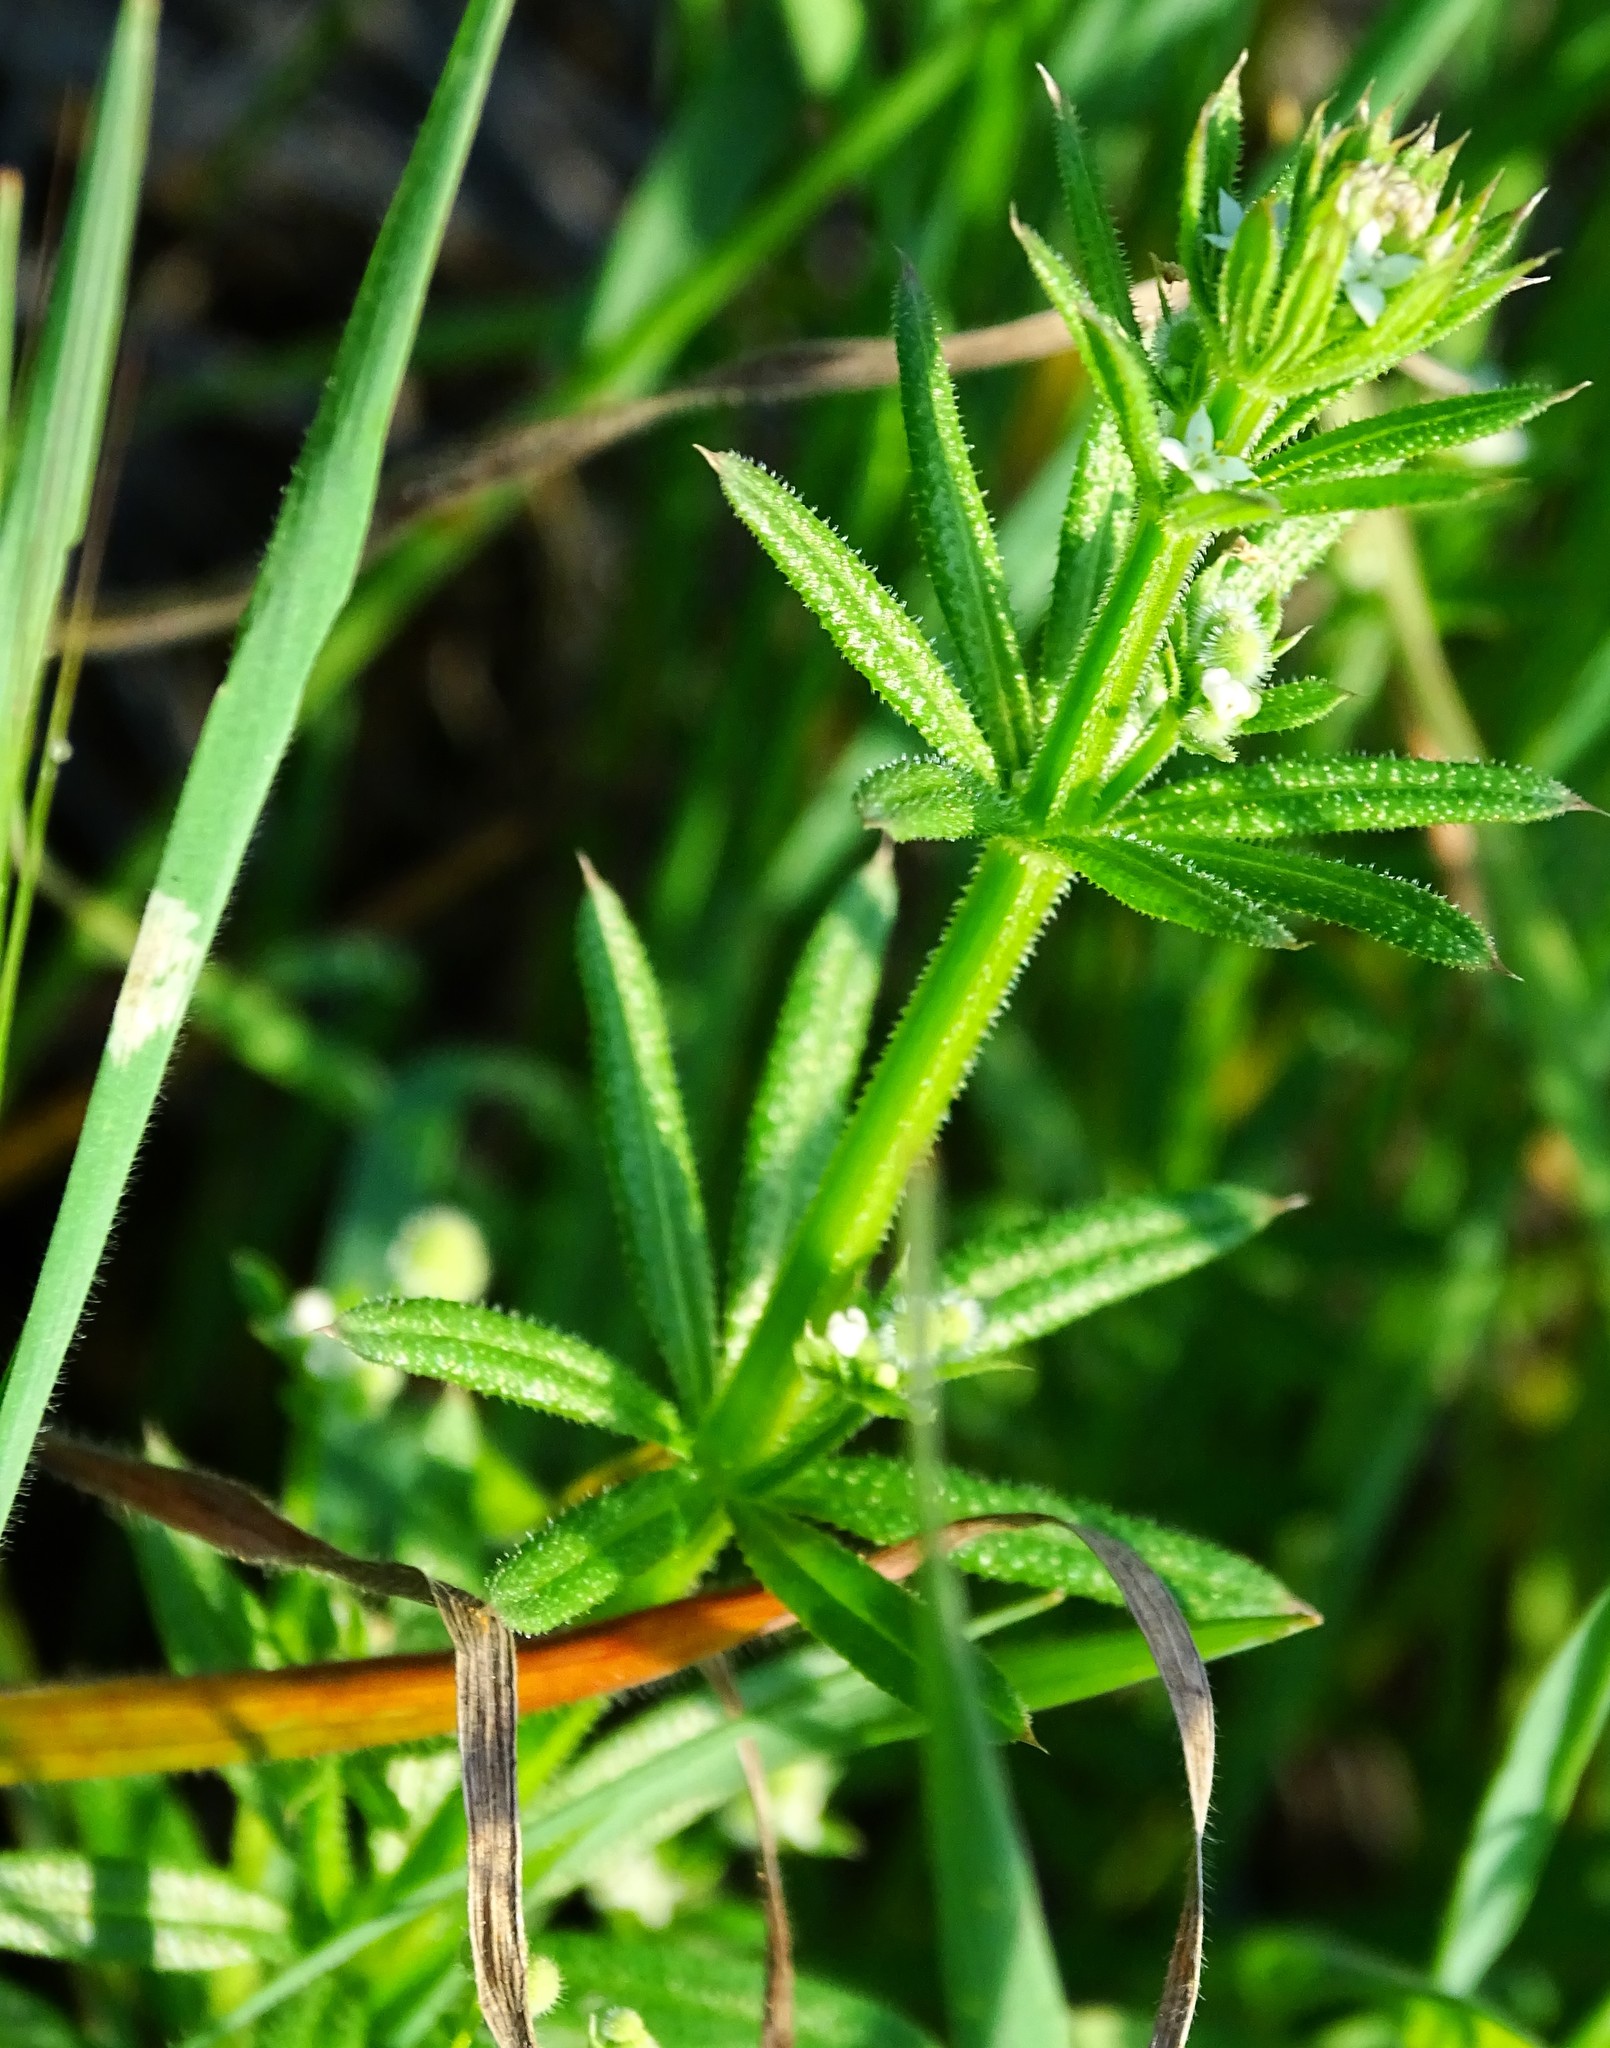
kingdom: Plantae
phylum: Tracheophyta
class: Magnoliopsida
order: Gentianales
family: Rubiaceae
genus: Galium
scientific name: Galium aparine
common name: Cleavers
